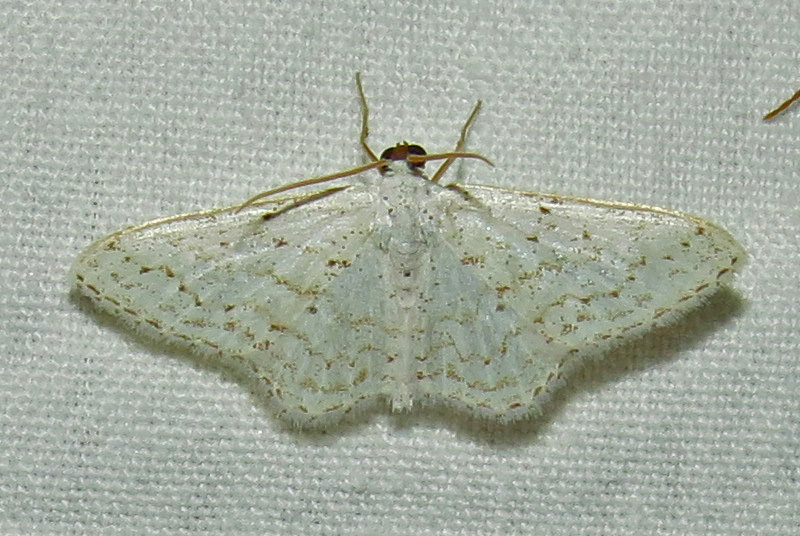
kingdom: Animalia
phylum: Arthropoda
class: Insecta
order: Lepidoptera
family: Geometridae
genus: Idaea
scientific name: Idaea tacturata
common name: Dot-lined wave
